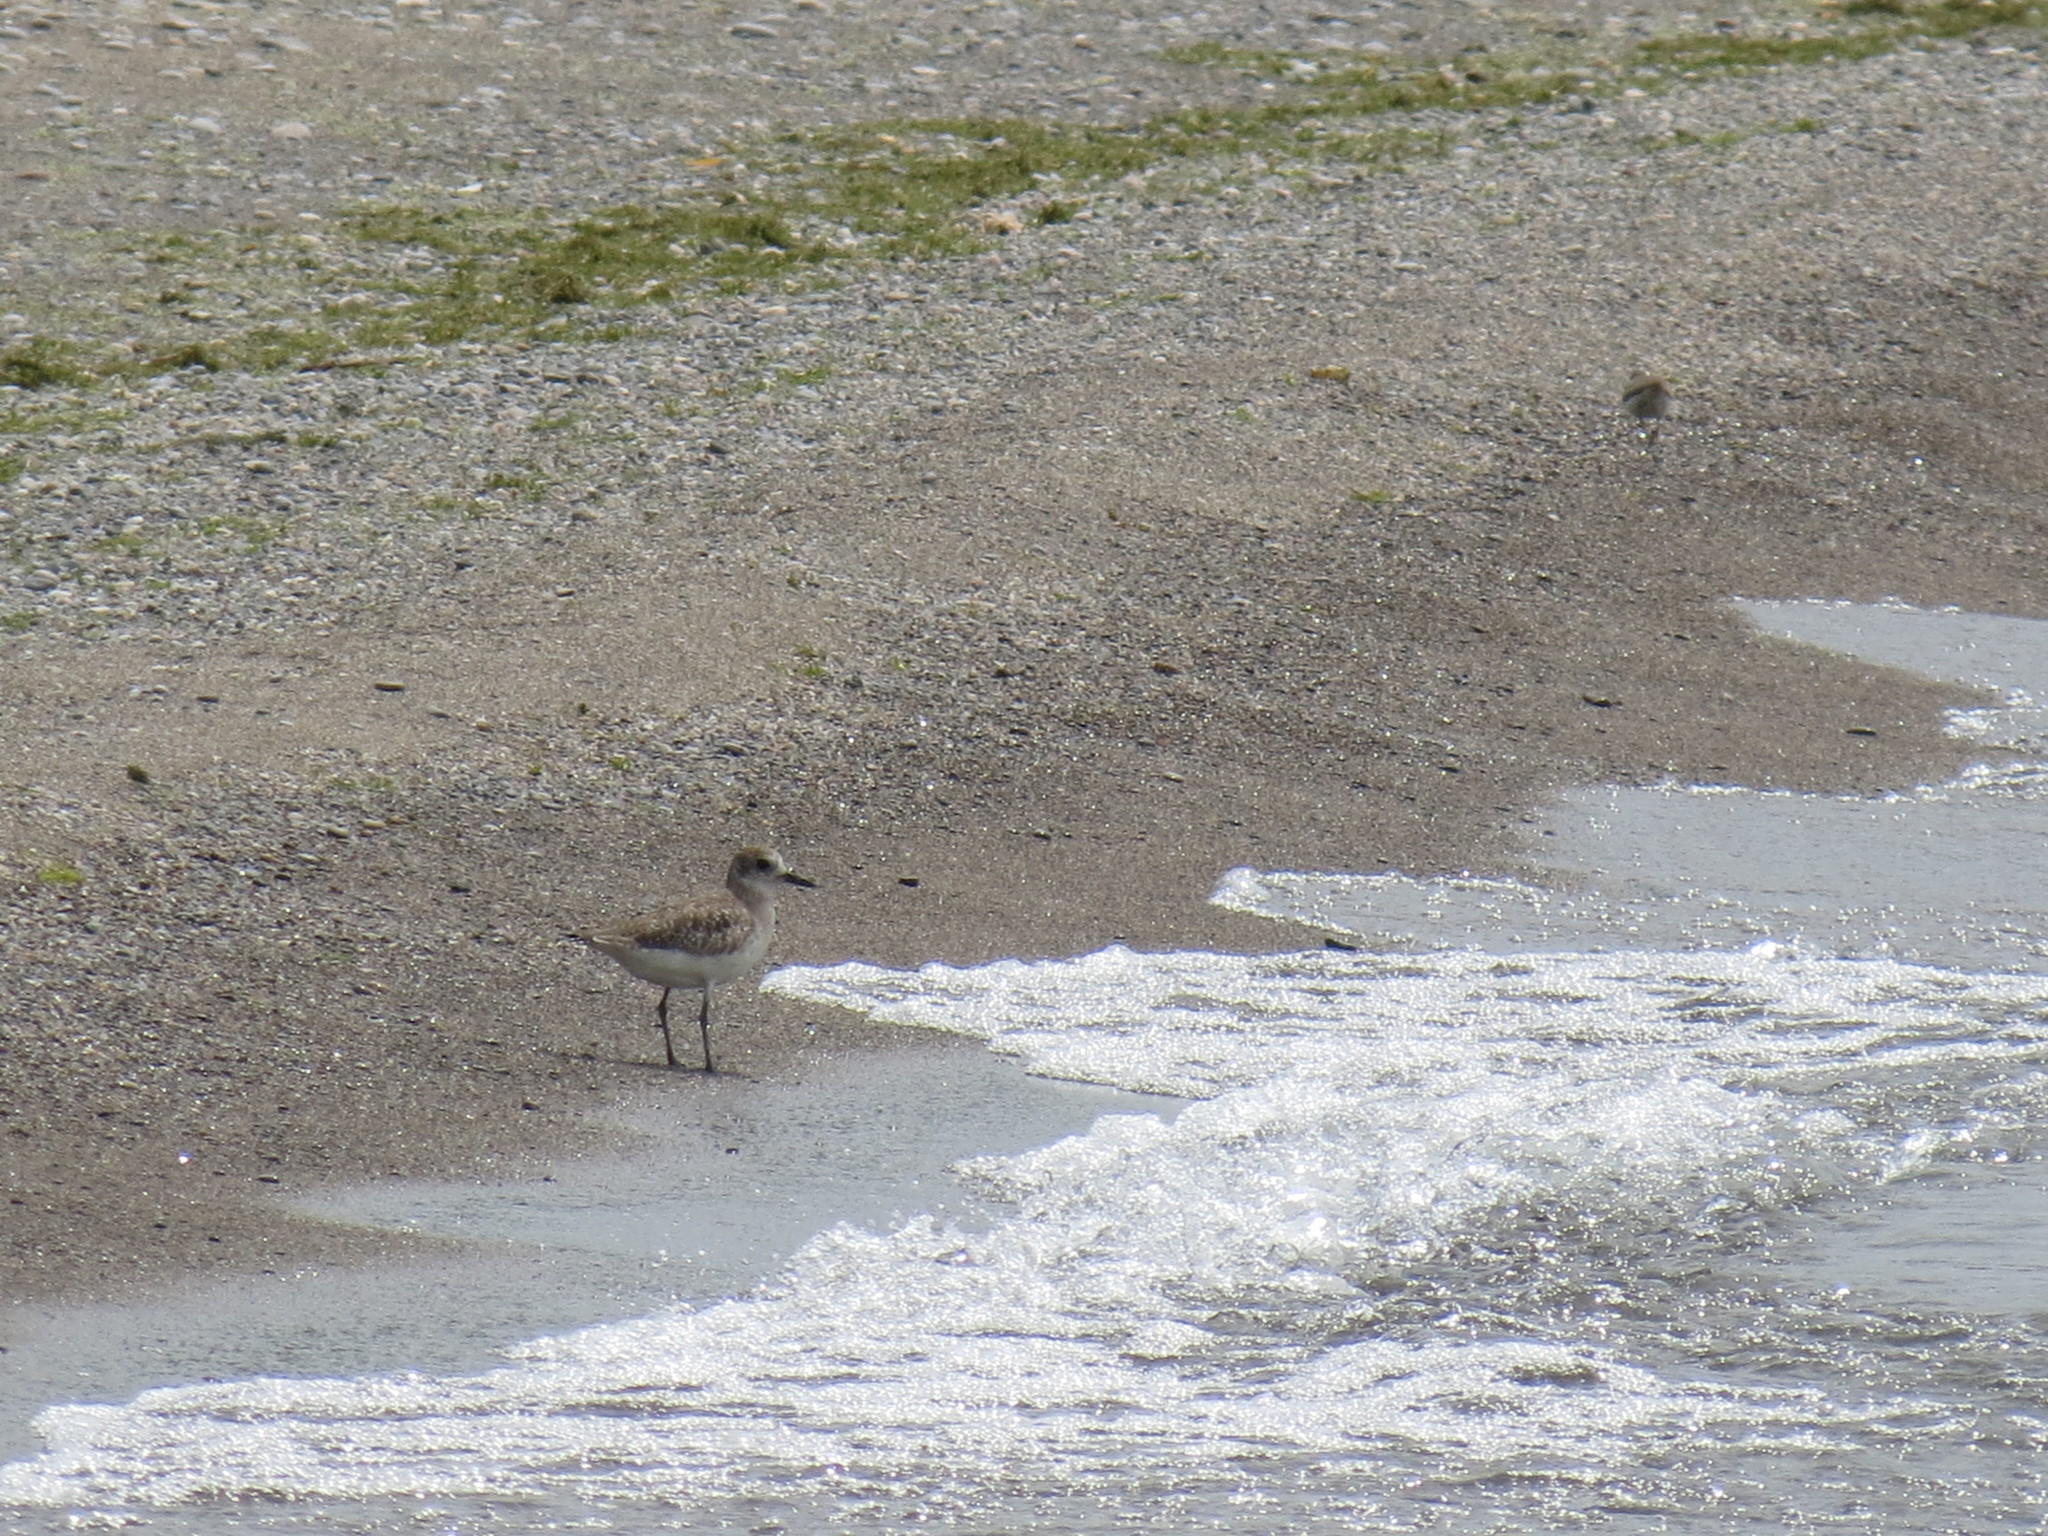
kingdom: Animalia
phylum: Chordata
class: Aves
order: Charadriiformes
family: Charadriidae
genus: Pluvialis
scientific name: Pluvialis squatarola
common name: Grey plover
